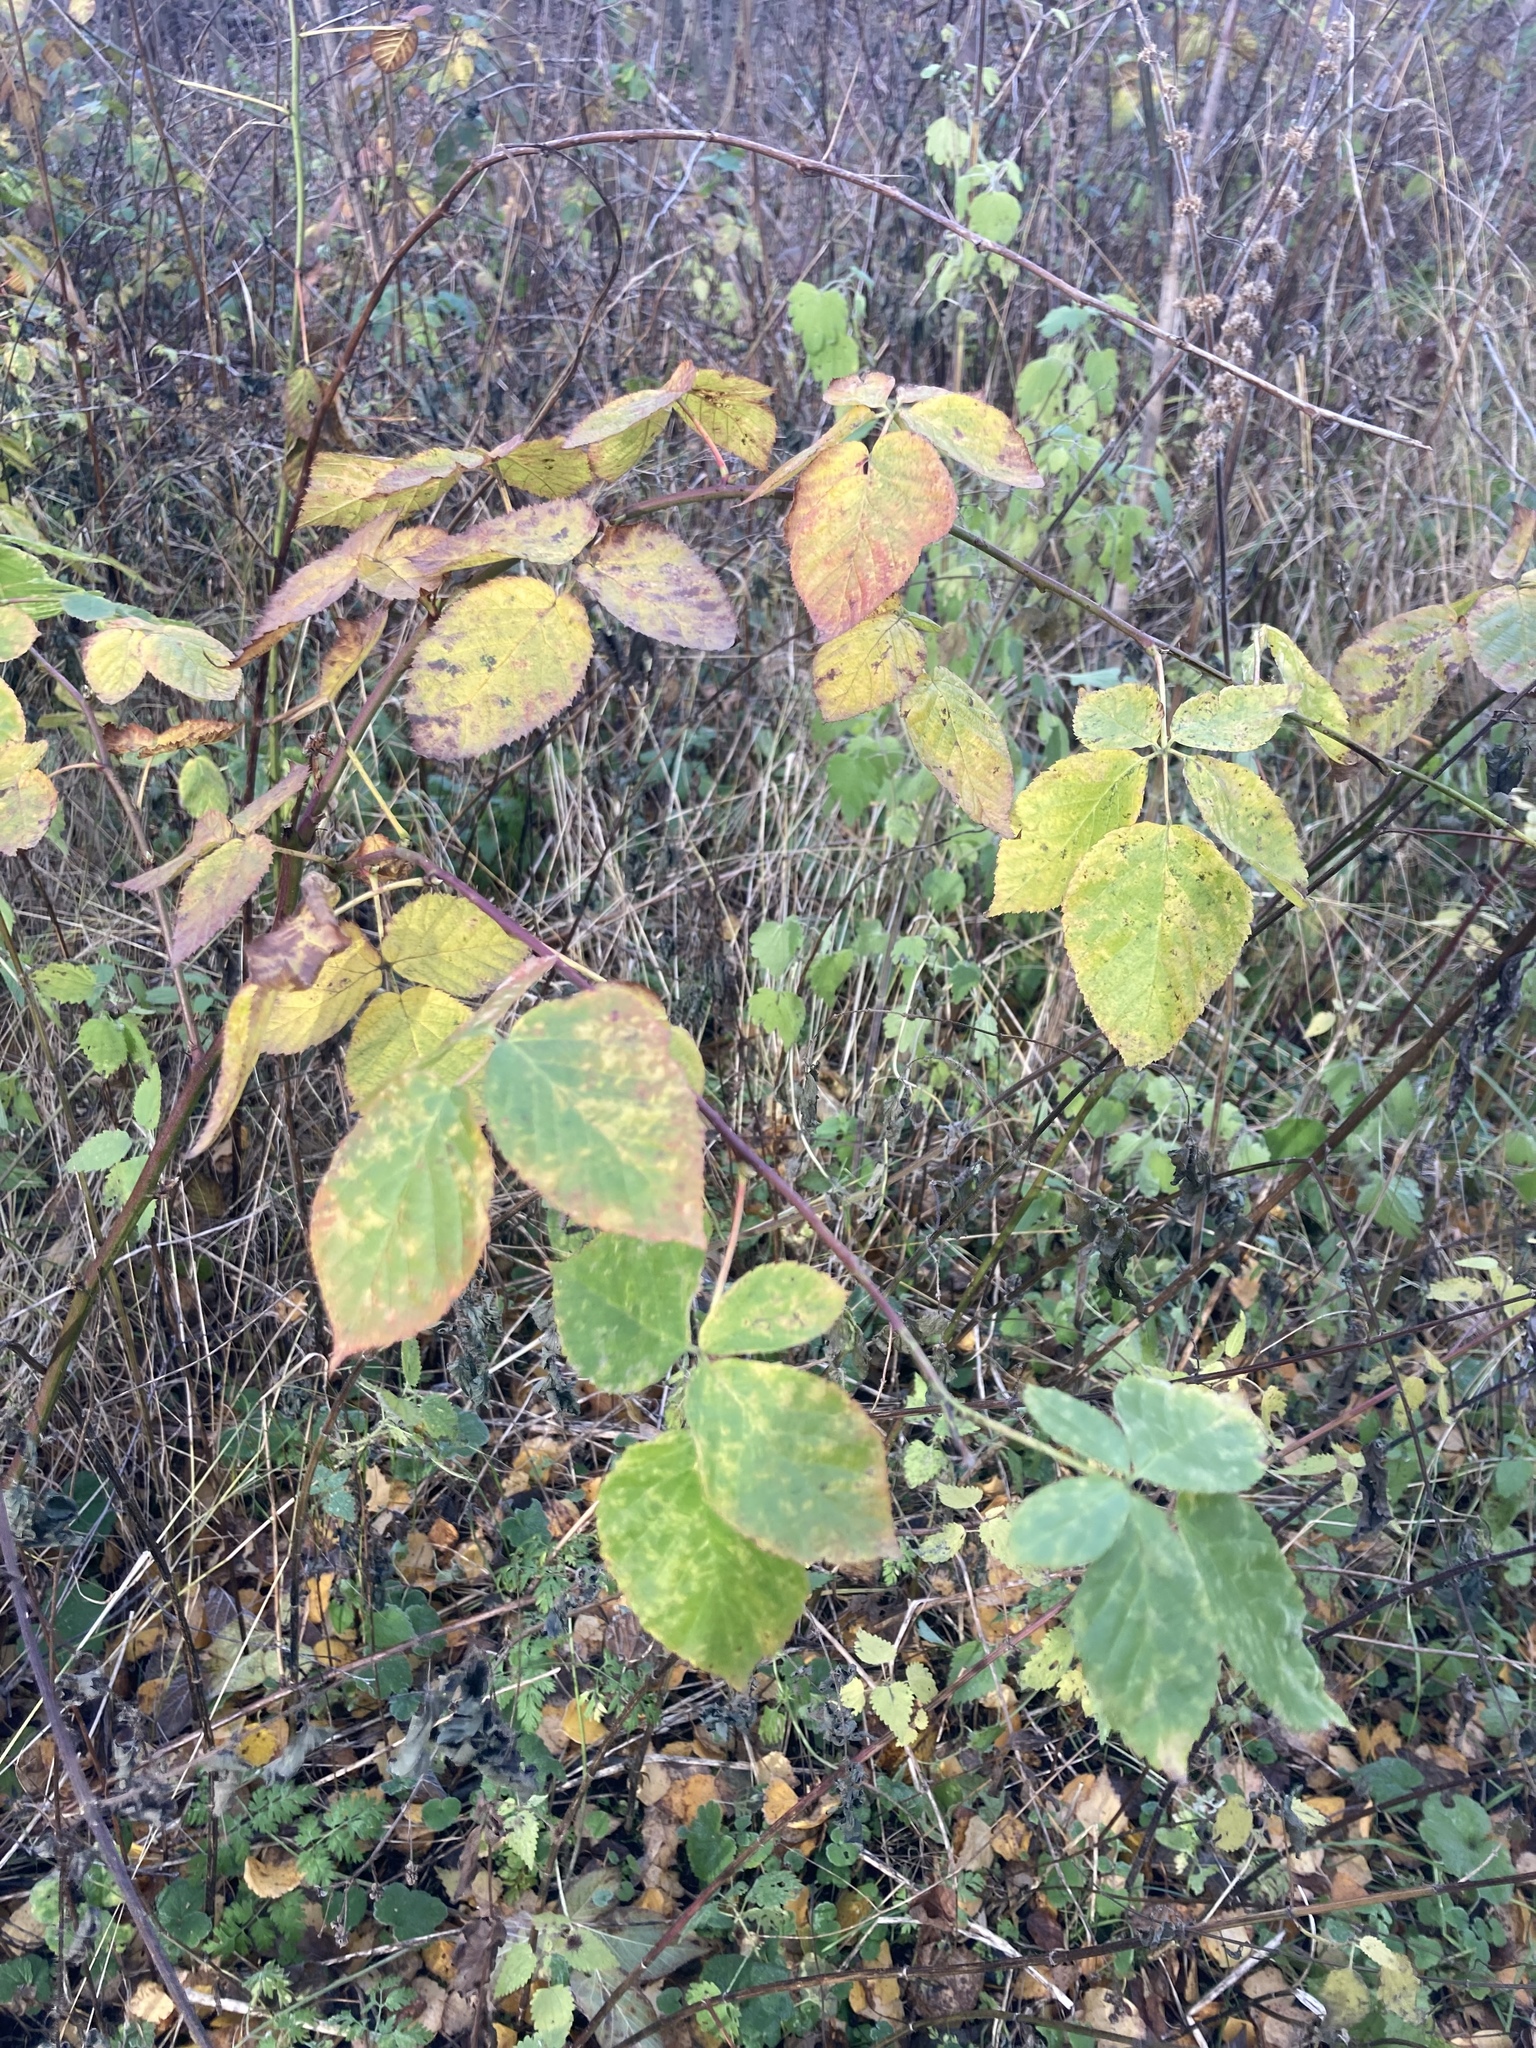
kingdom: Plantae
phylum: Tracheophyta
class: Magnoliopsida
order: Rosales
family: Rosaceae
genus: Rubus
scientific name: Rubus idaeus
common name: Raspberry
